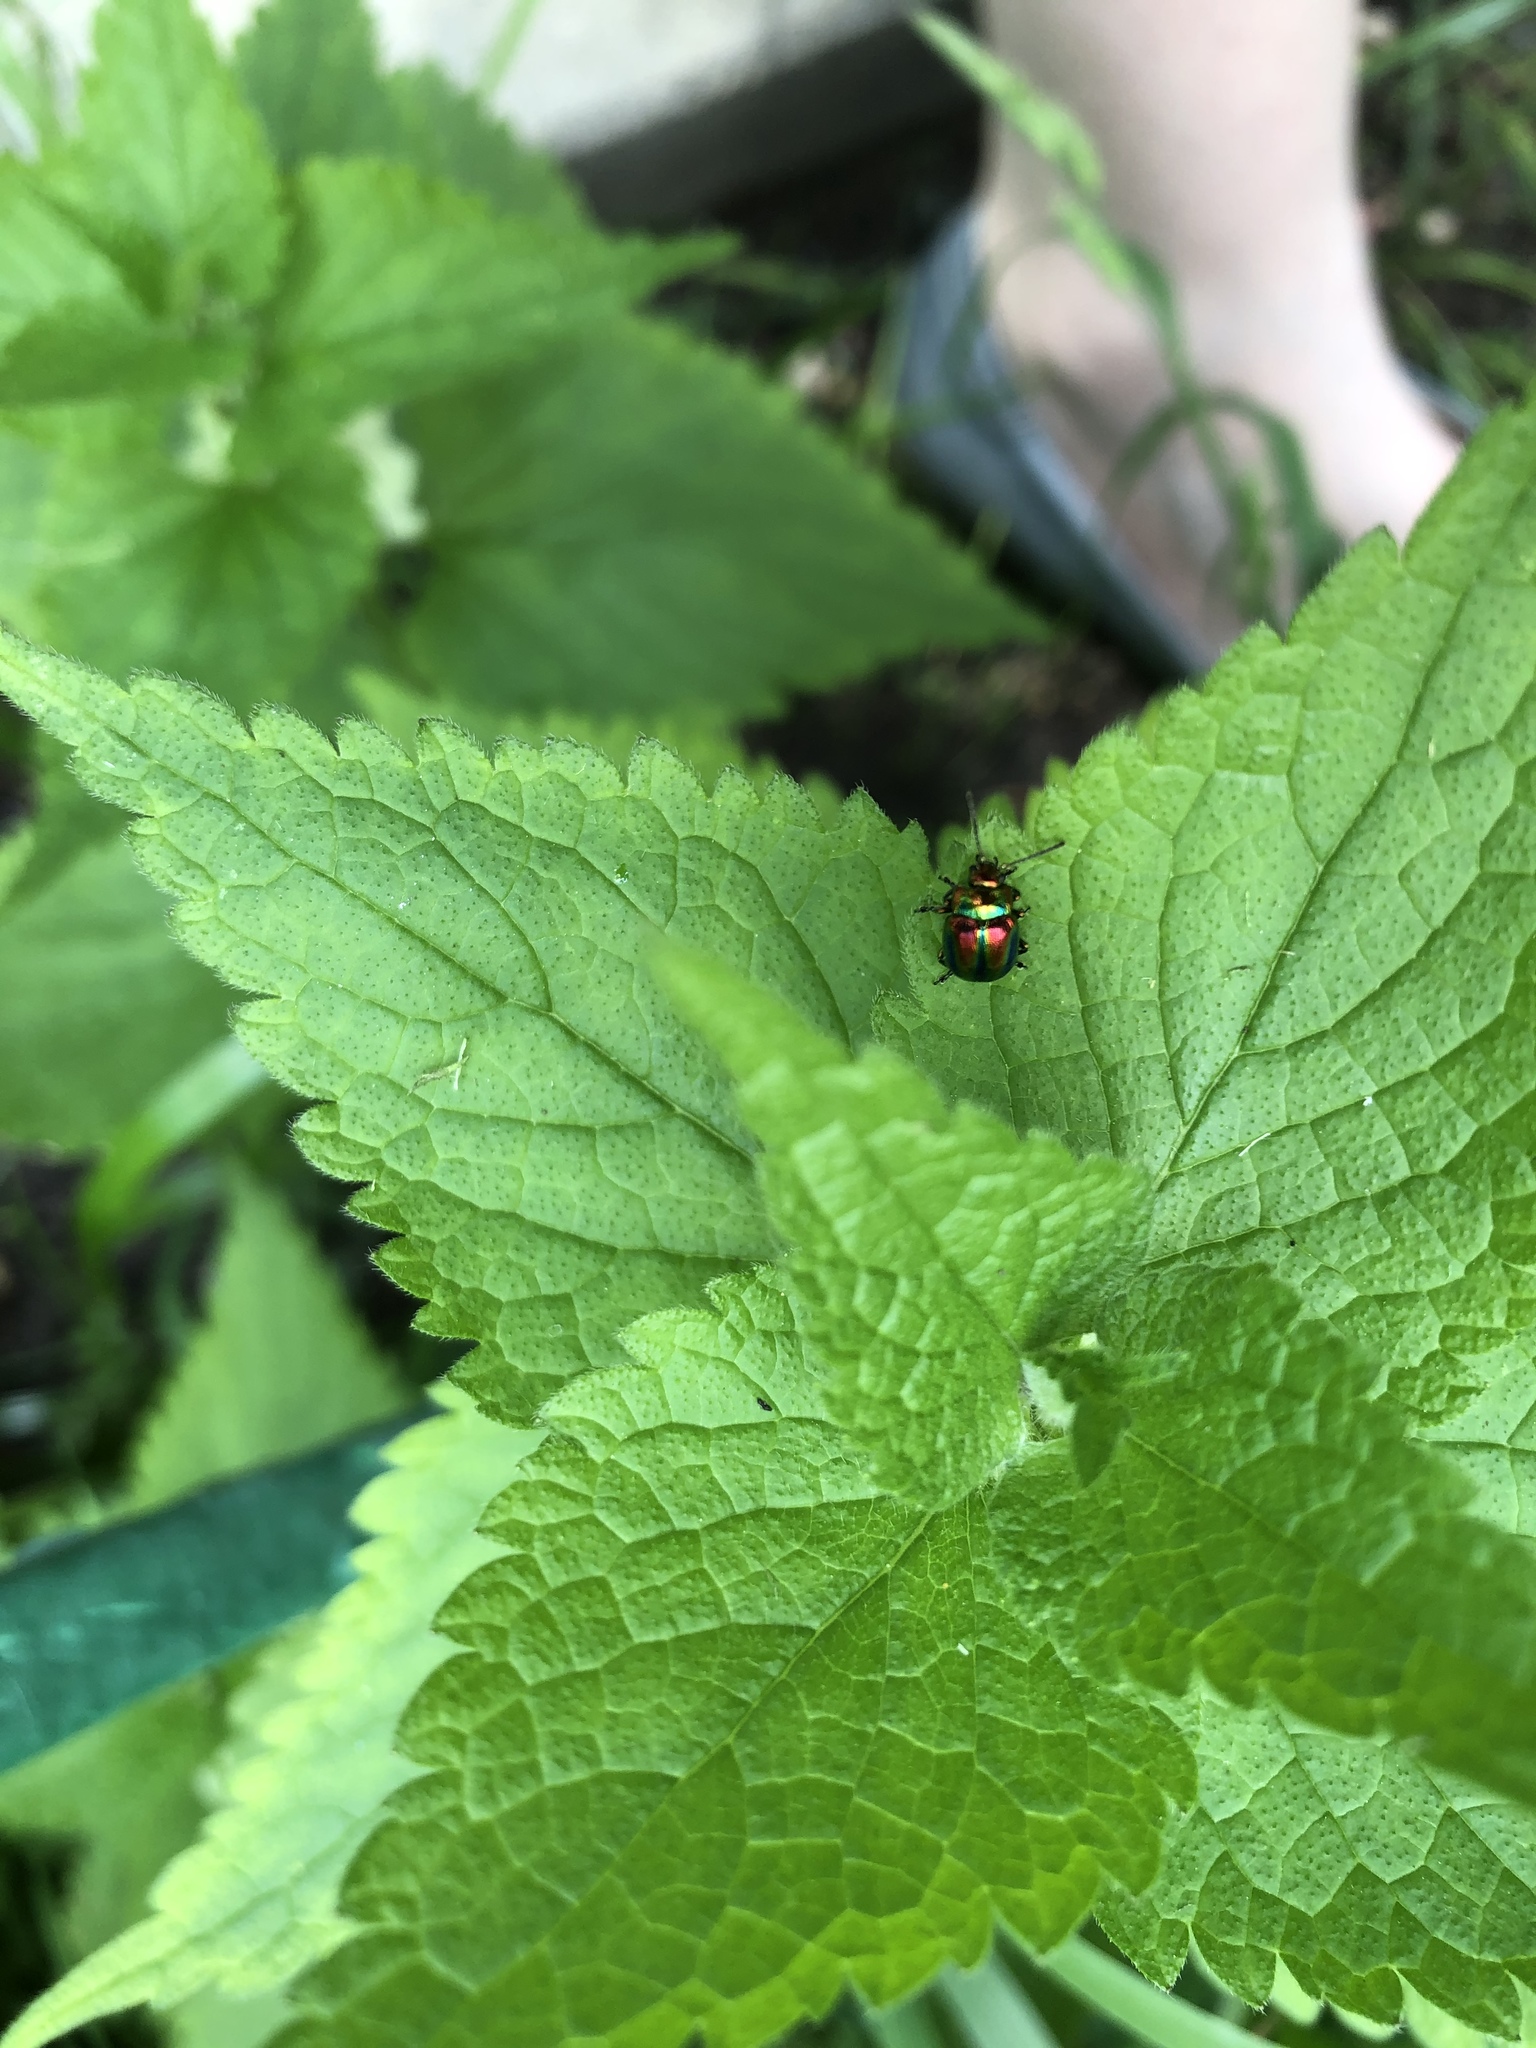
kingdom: Animalia
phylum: Arthropoda
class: Insecta
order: Coleoptera
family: Chrysomelidae
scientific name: Chrysomelidae
